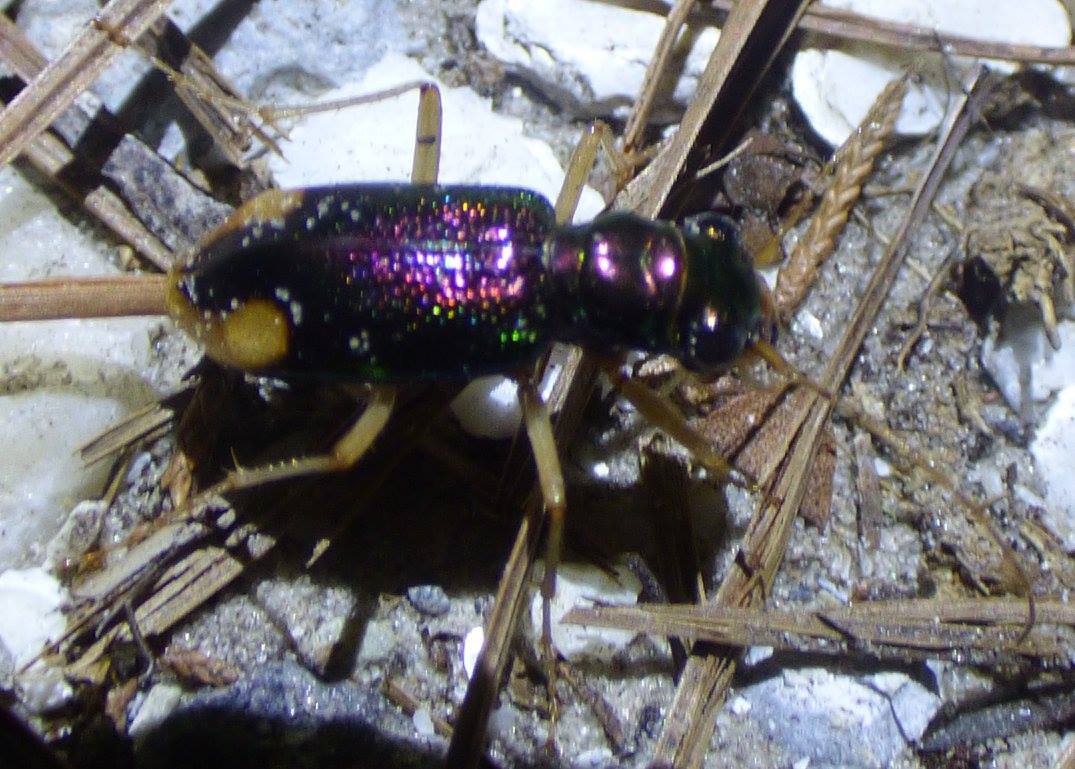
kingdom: Animalia
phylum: Arthropoda
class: Insecta
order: Coleoptera
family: Carabidae
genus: Tetracha
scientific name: Tetracha carolina
